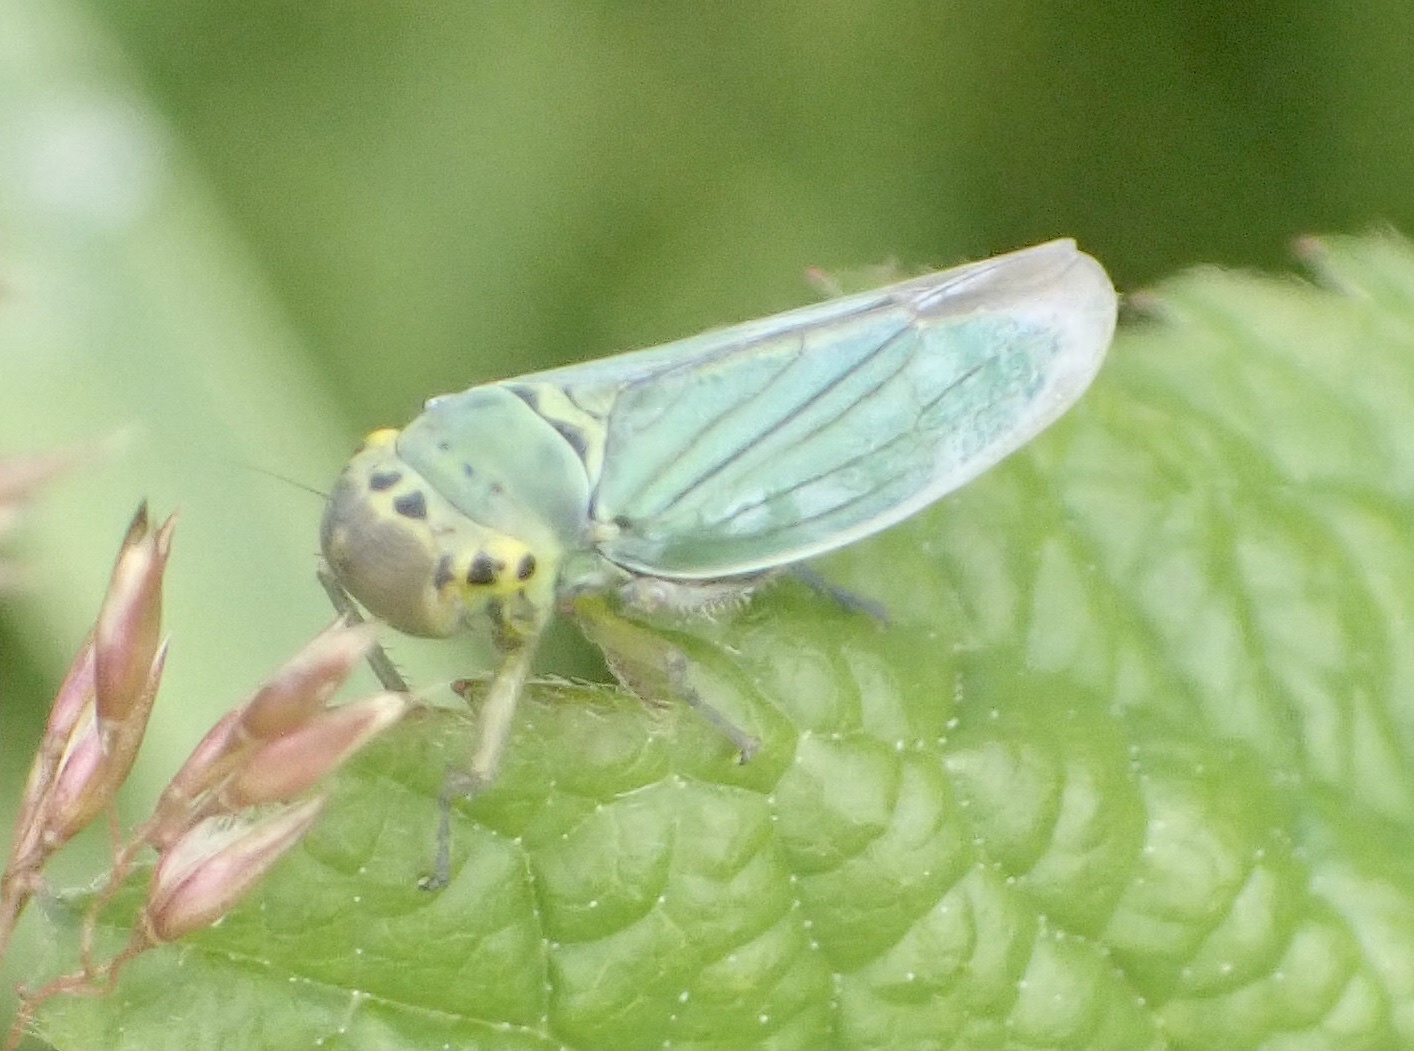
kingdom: Animalia
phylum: Arthropoda
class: Insecta
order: Hemiptera
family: Cicadellidae
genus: Cicadella
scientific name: Cicadella viridis
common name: Leafhopper
